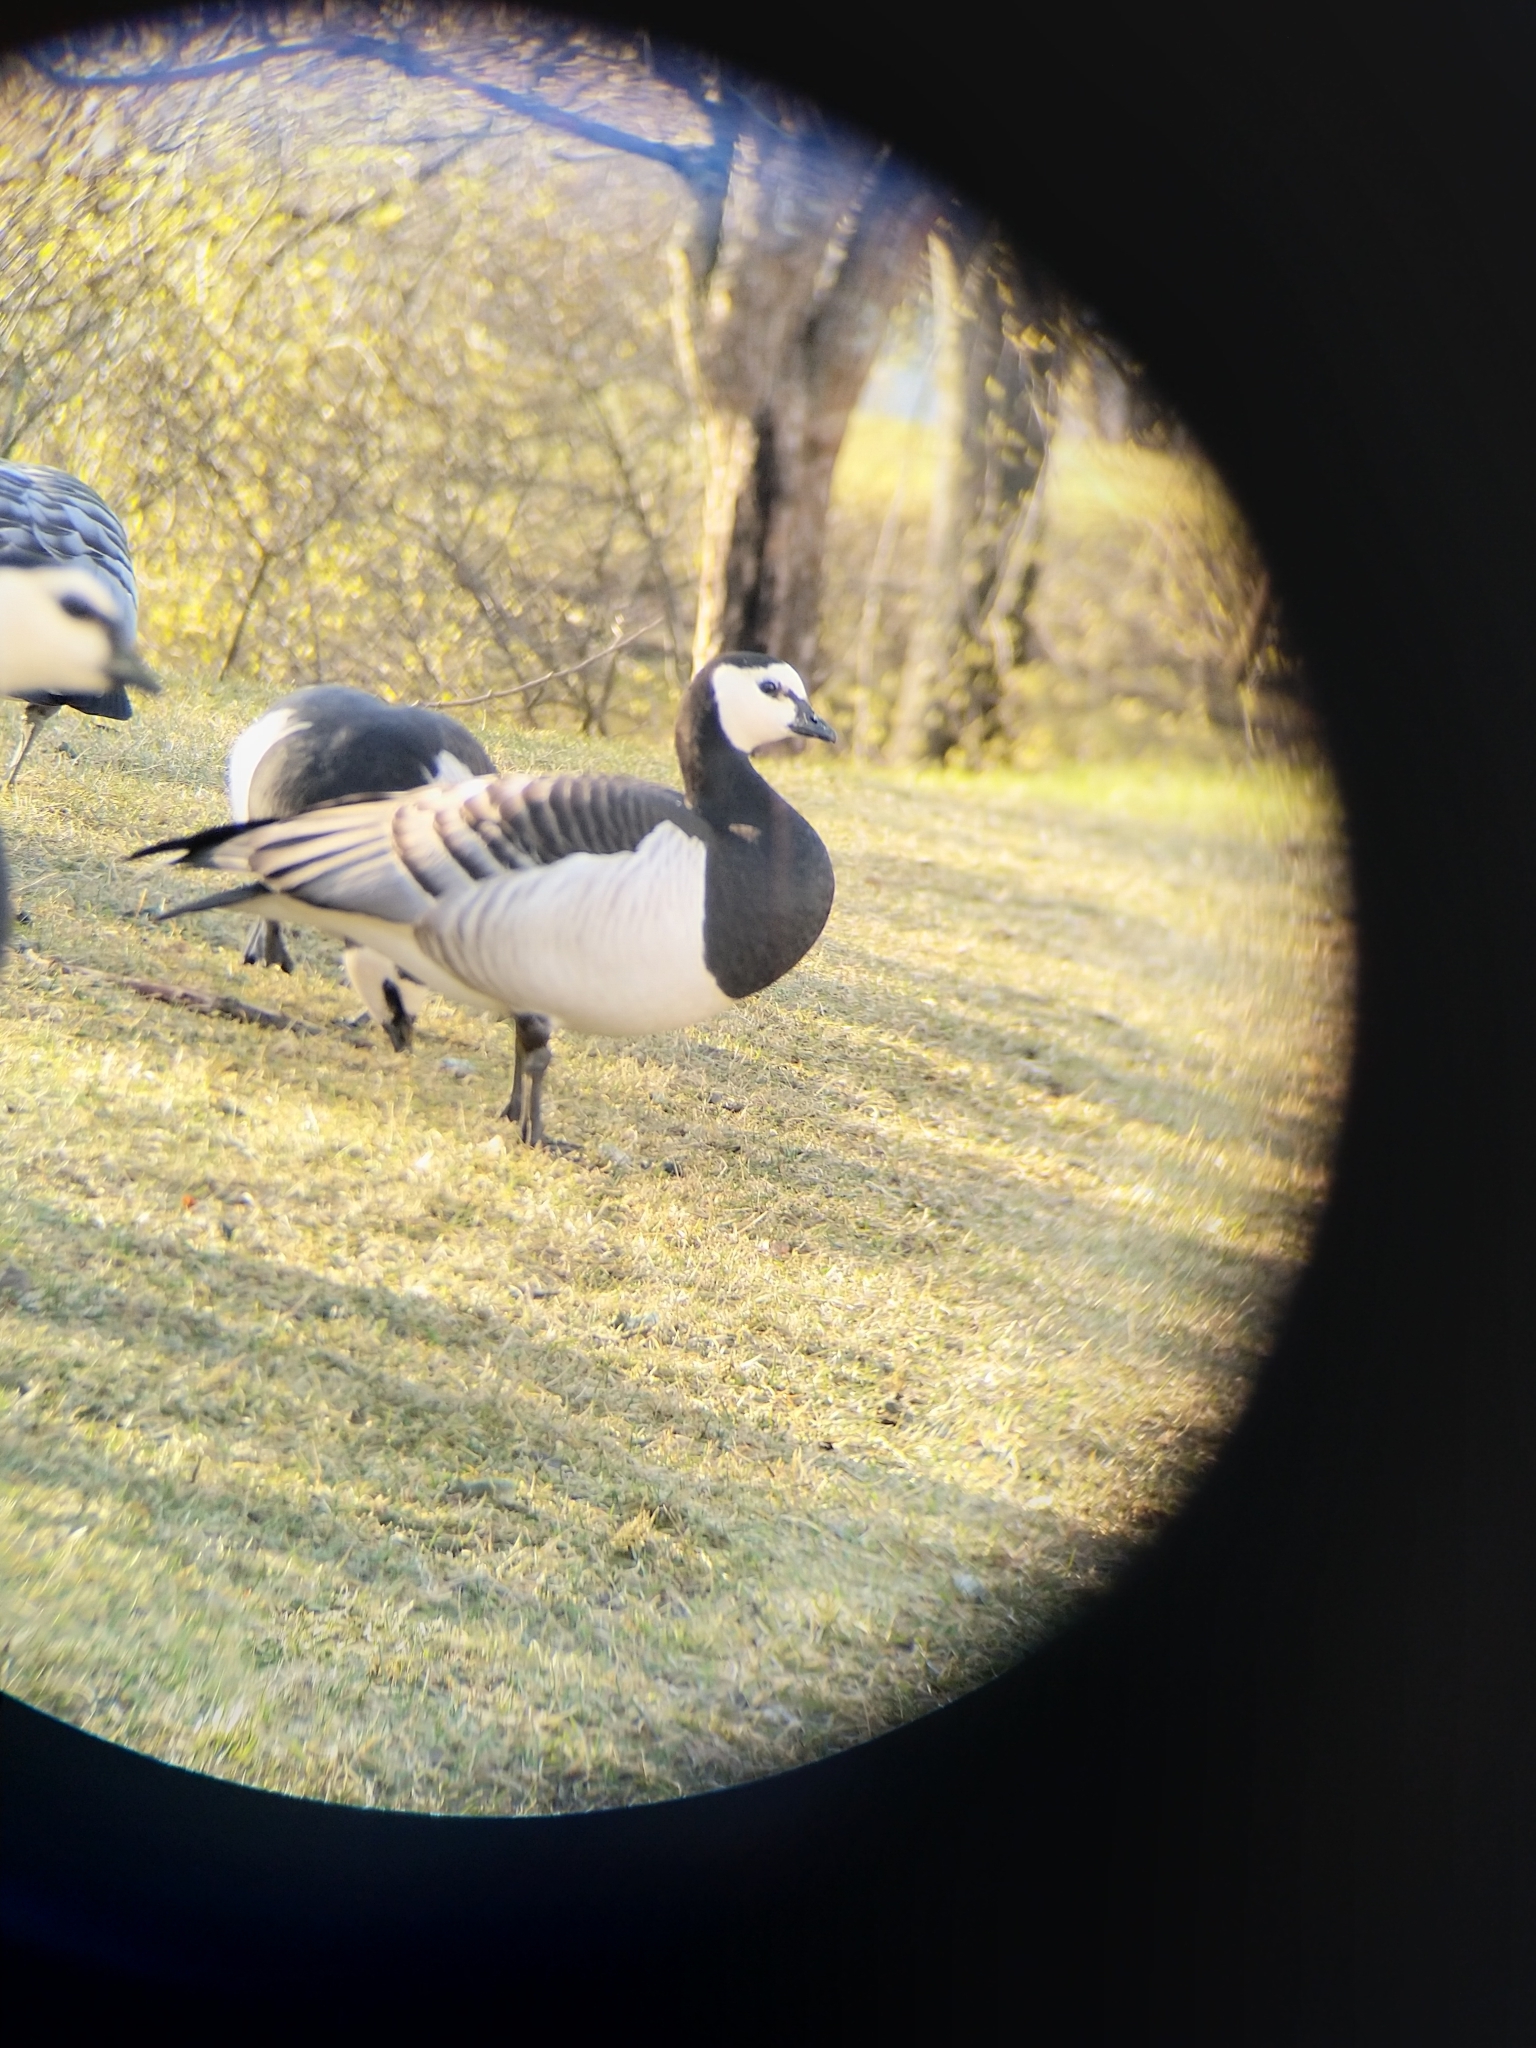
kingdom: Animalia
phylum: Chordata
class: Aves
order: Anseriformes
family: Anatidae
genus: Branta
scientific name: Branta leucopsis
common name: Barnacle goose
